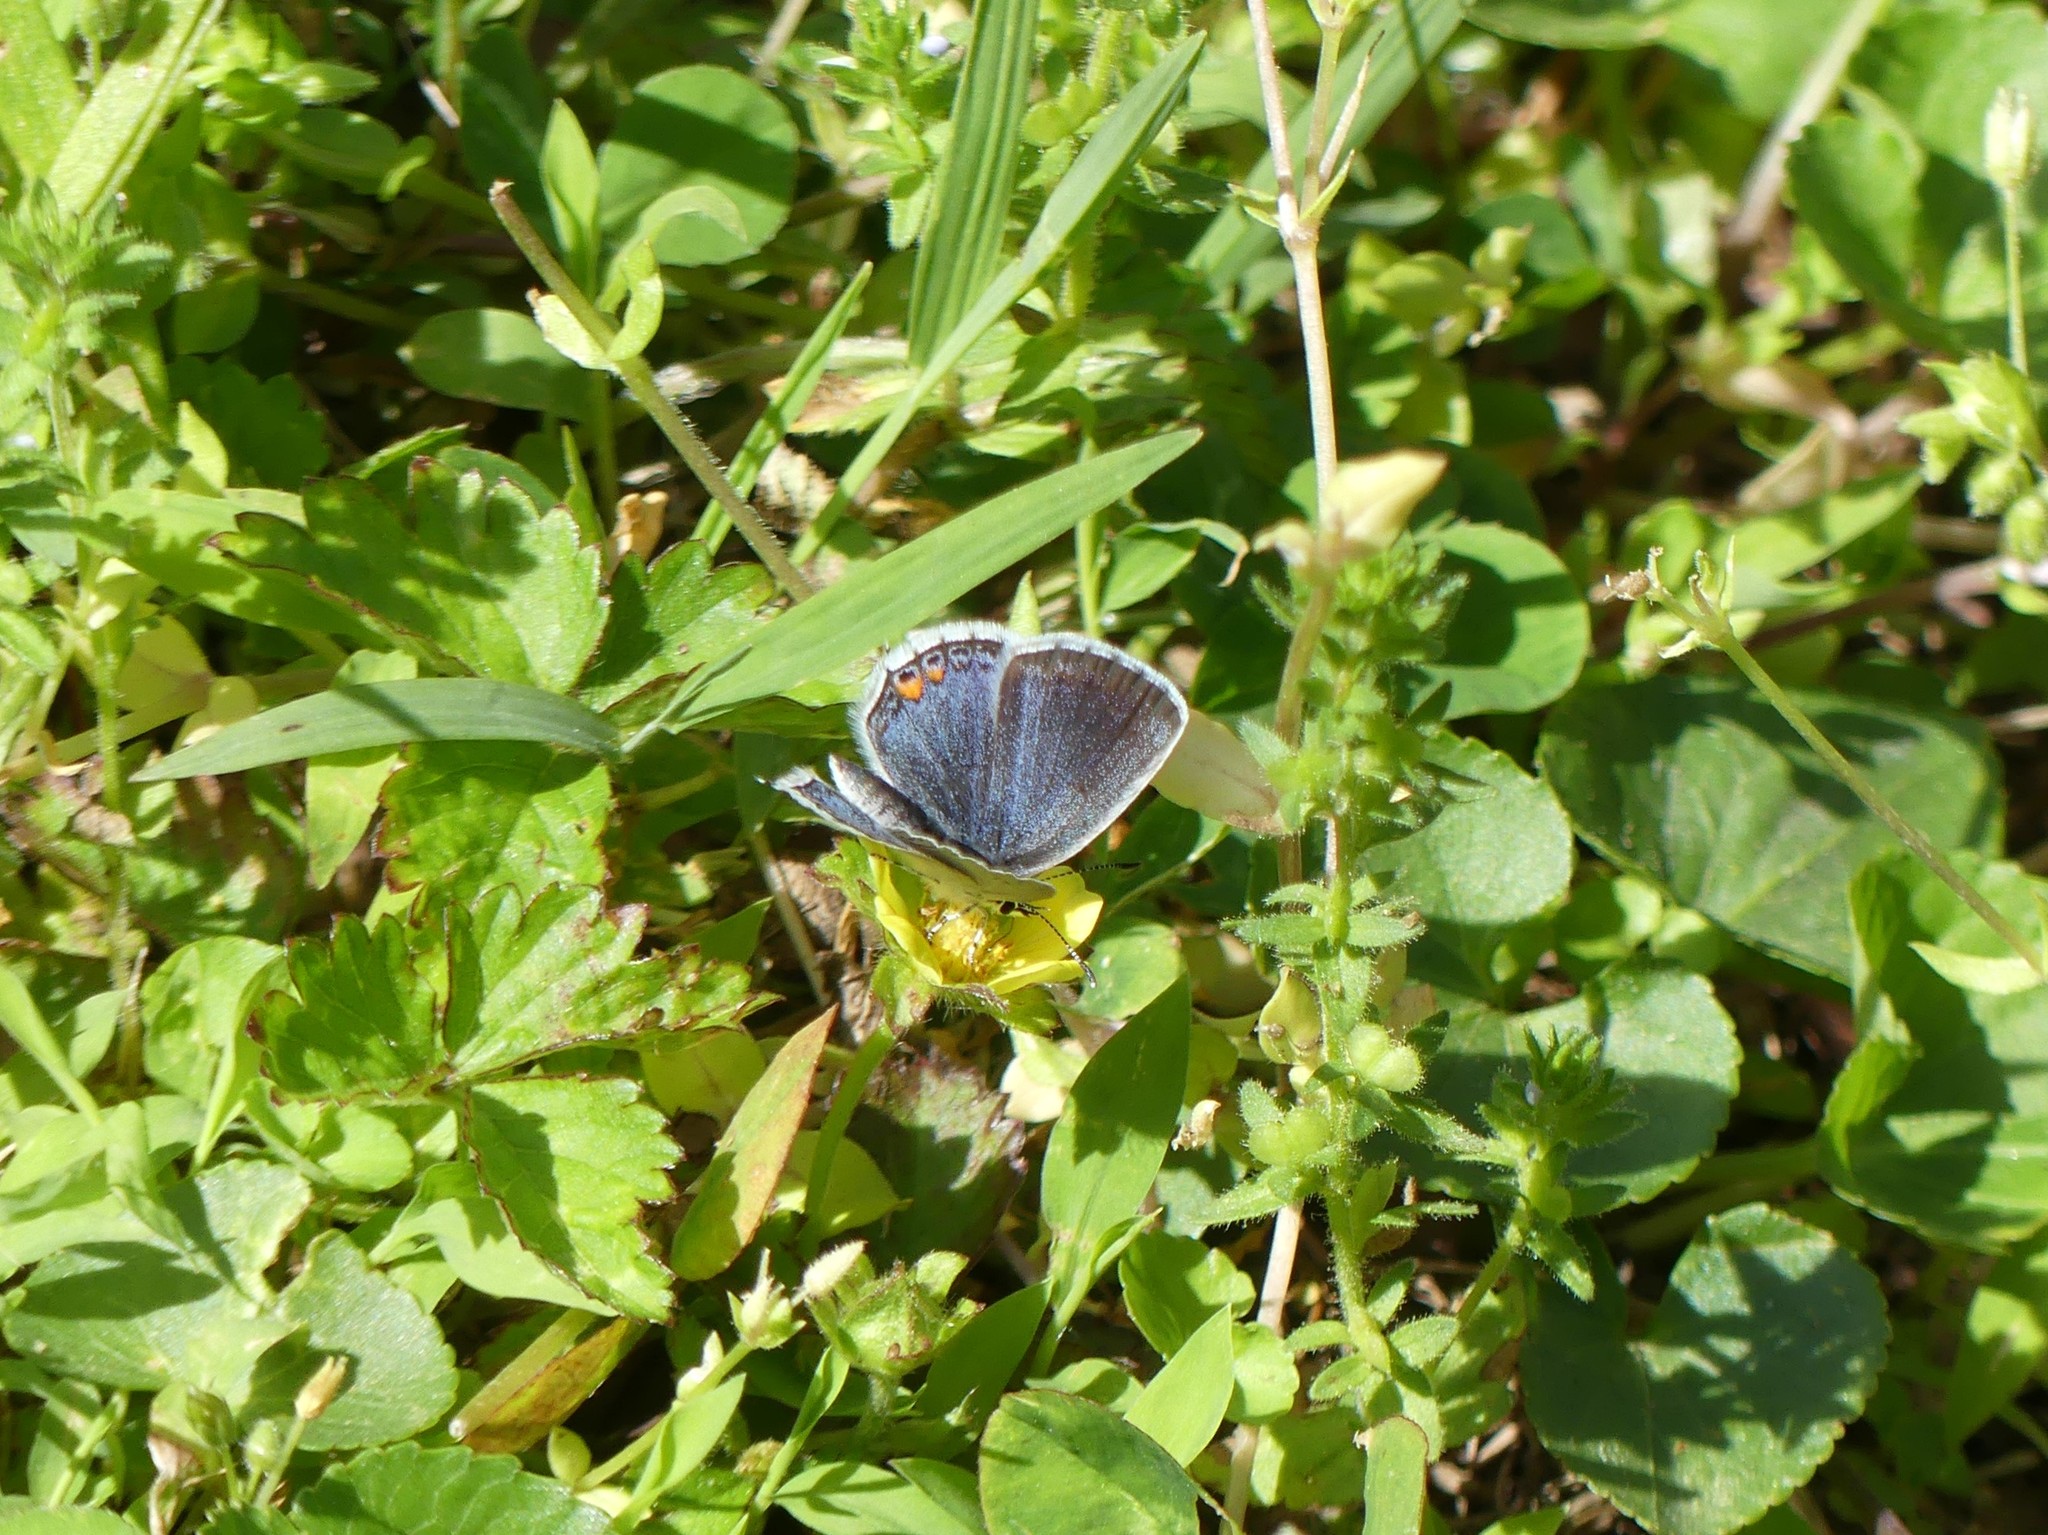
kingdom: Animalia
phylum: Arthropoda
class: Insecta
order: Lepidoptera
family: Lycaenidae
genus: Elkalyce
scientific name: Elkalyce comyntas
